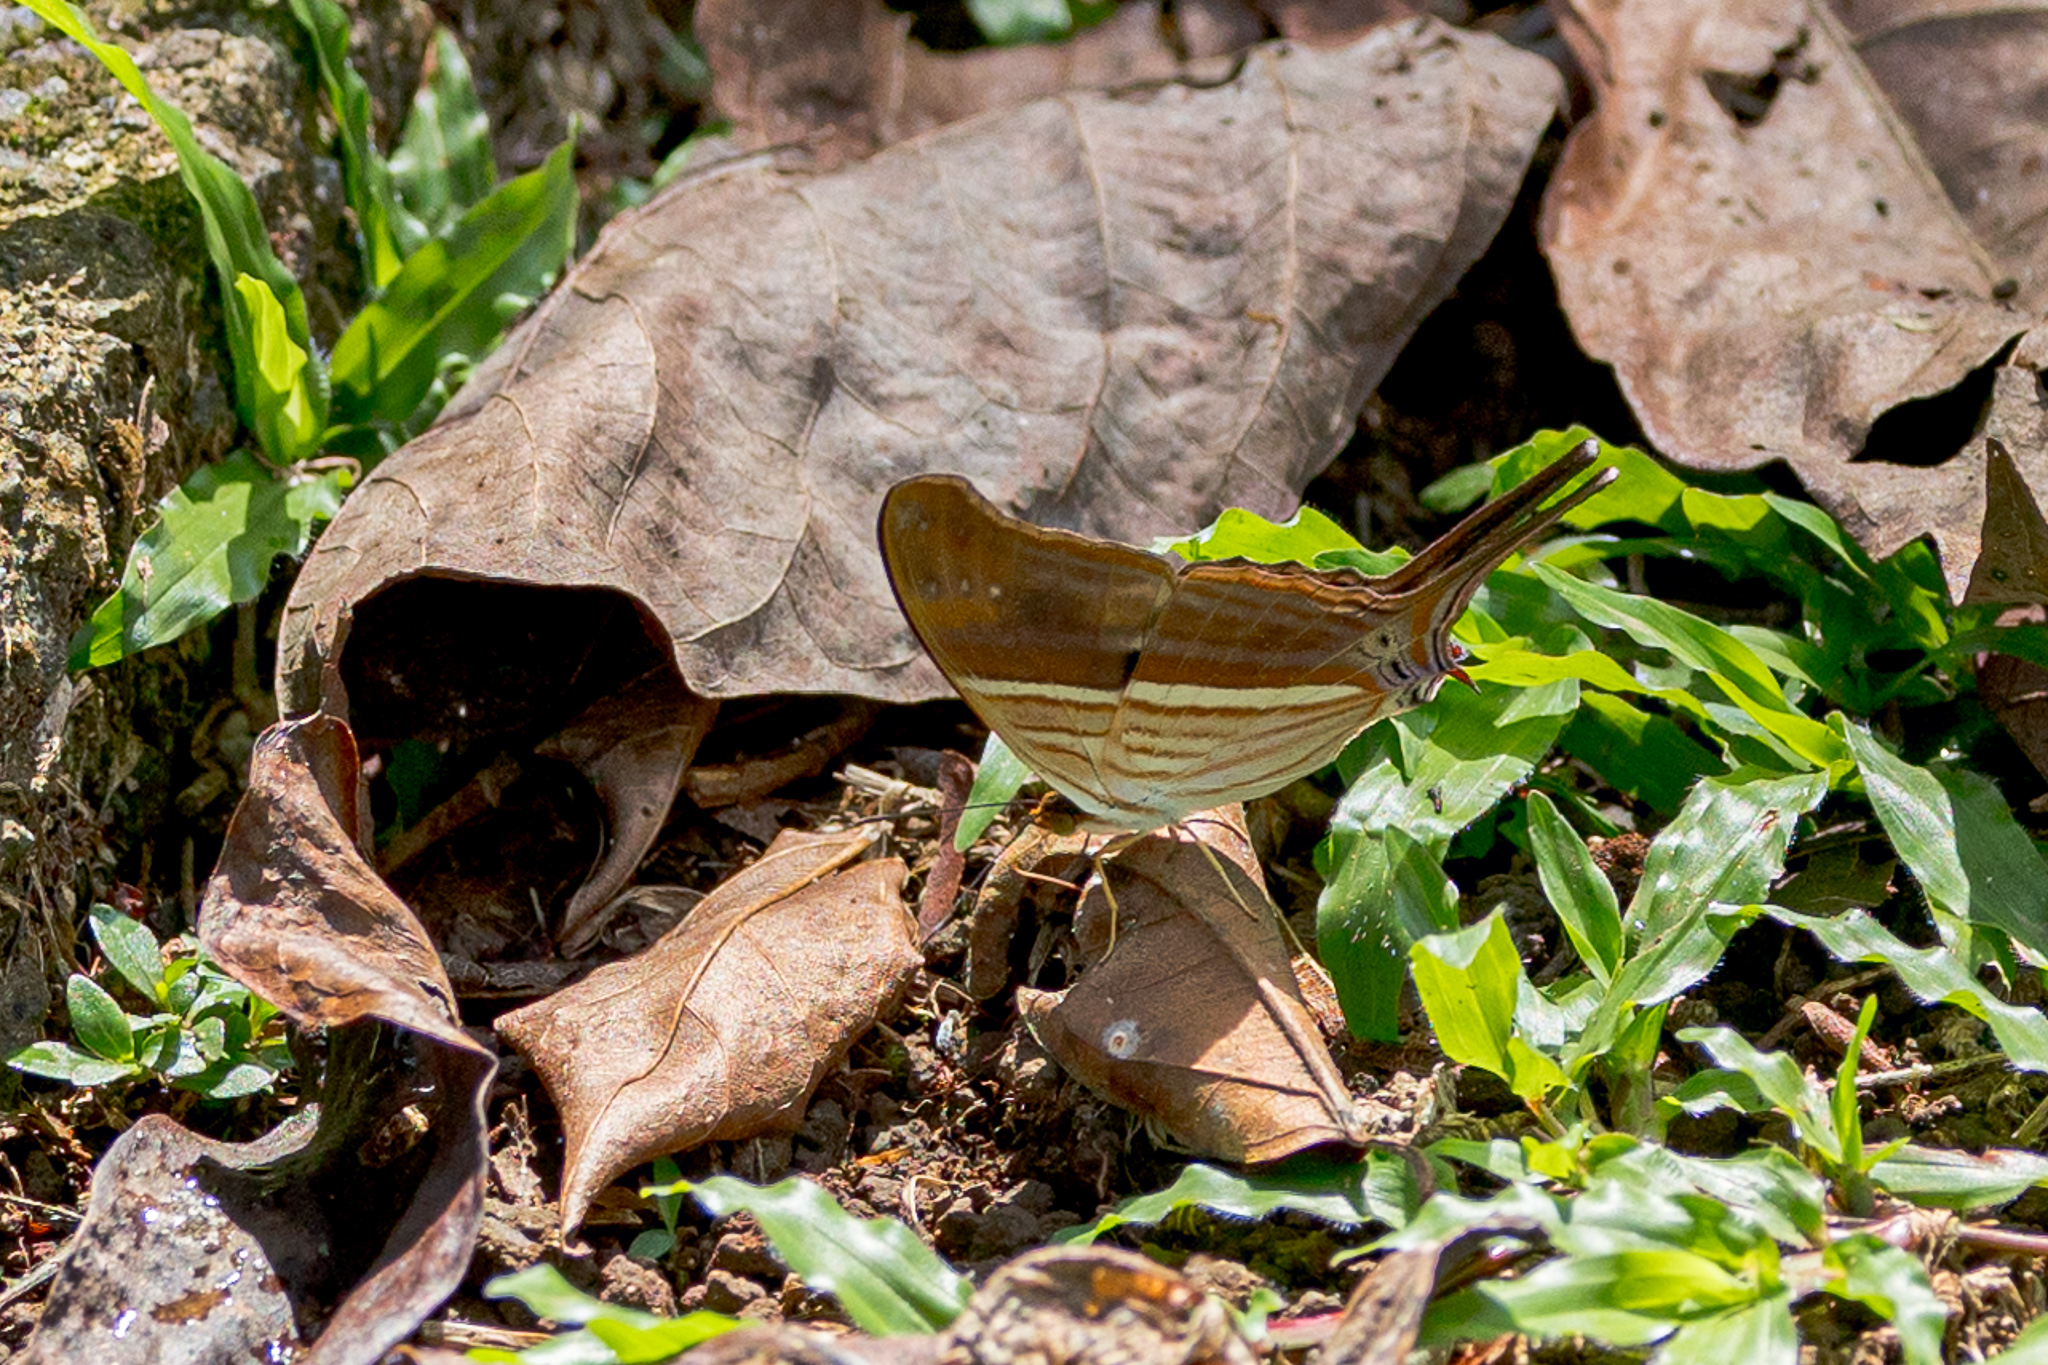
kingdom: Animalia
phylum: Arthropoda
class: Insecta
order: Lepidoptera
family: Nymphalidae
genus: Marpesia
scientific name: Marpesia chiron
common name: Many-banded daggerwing
